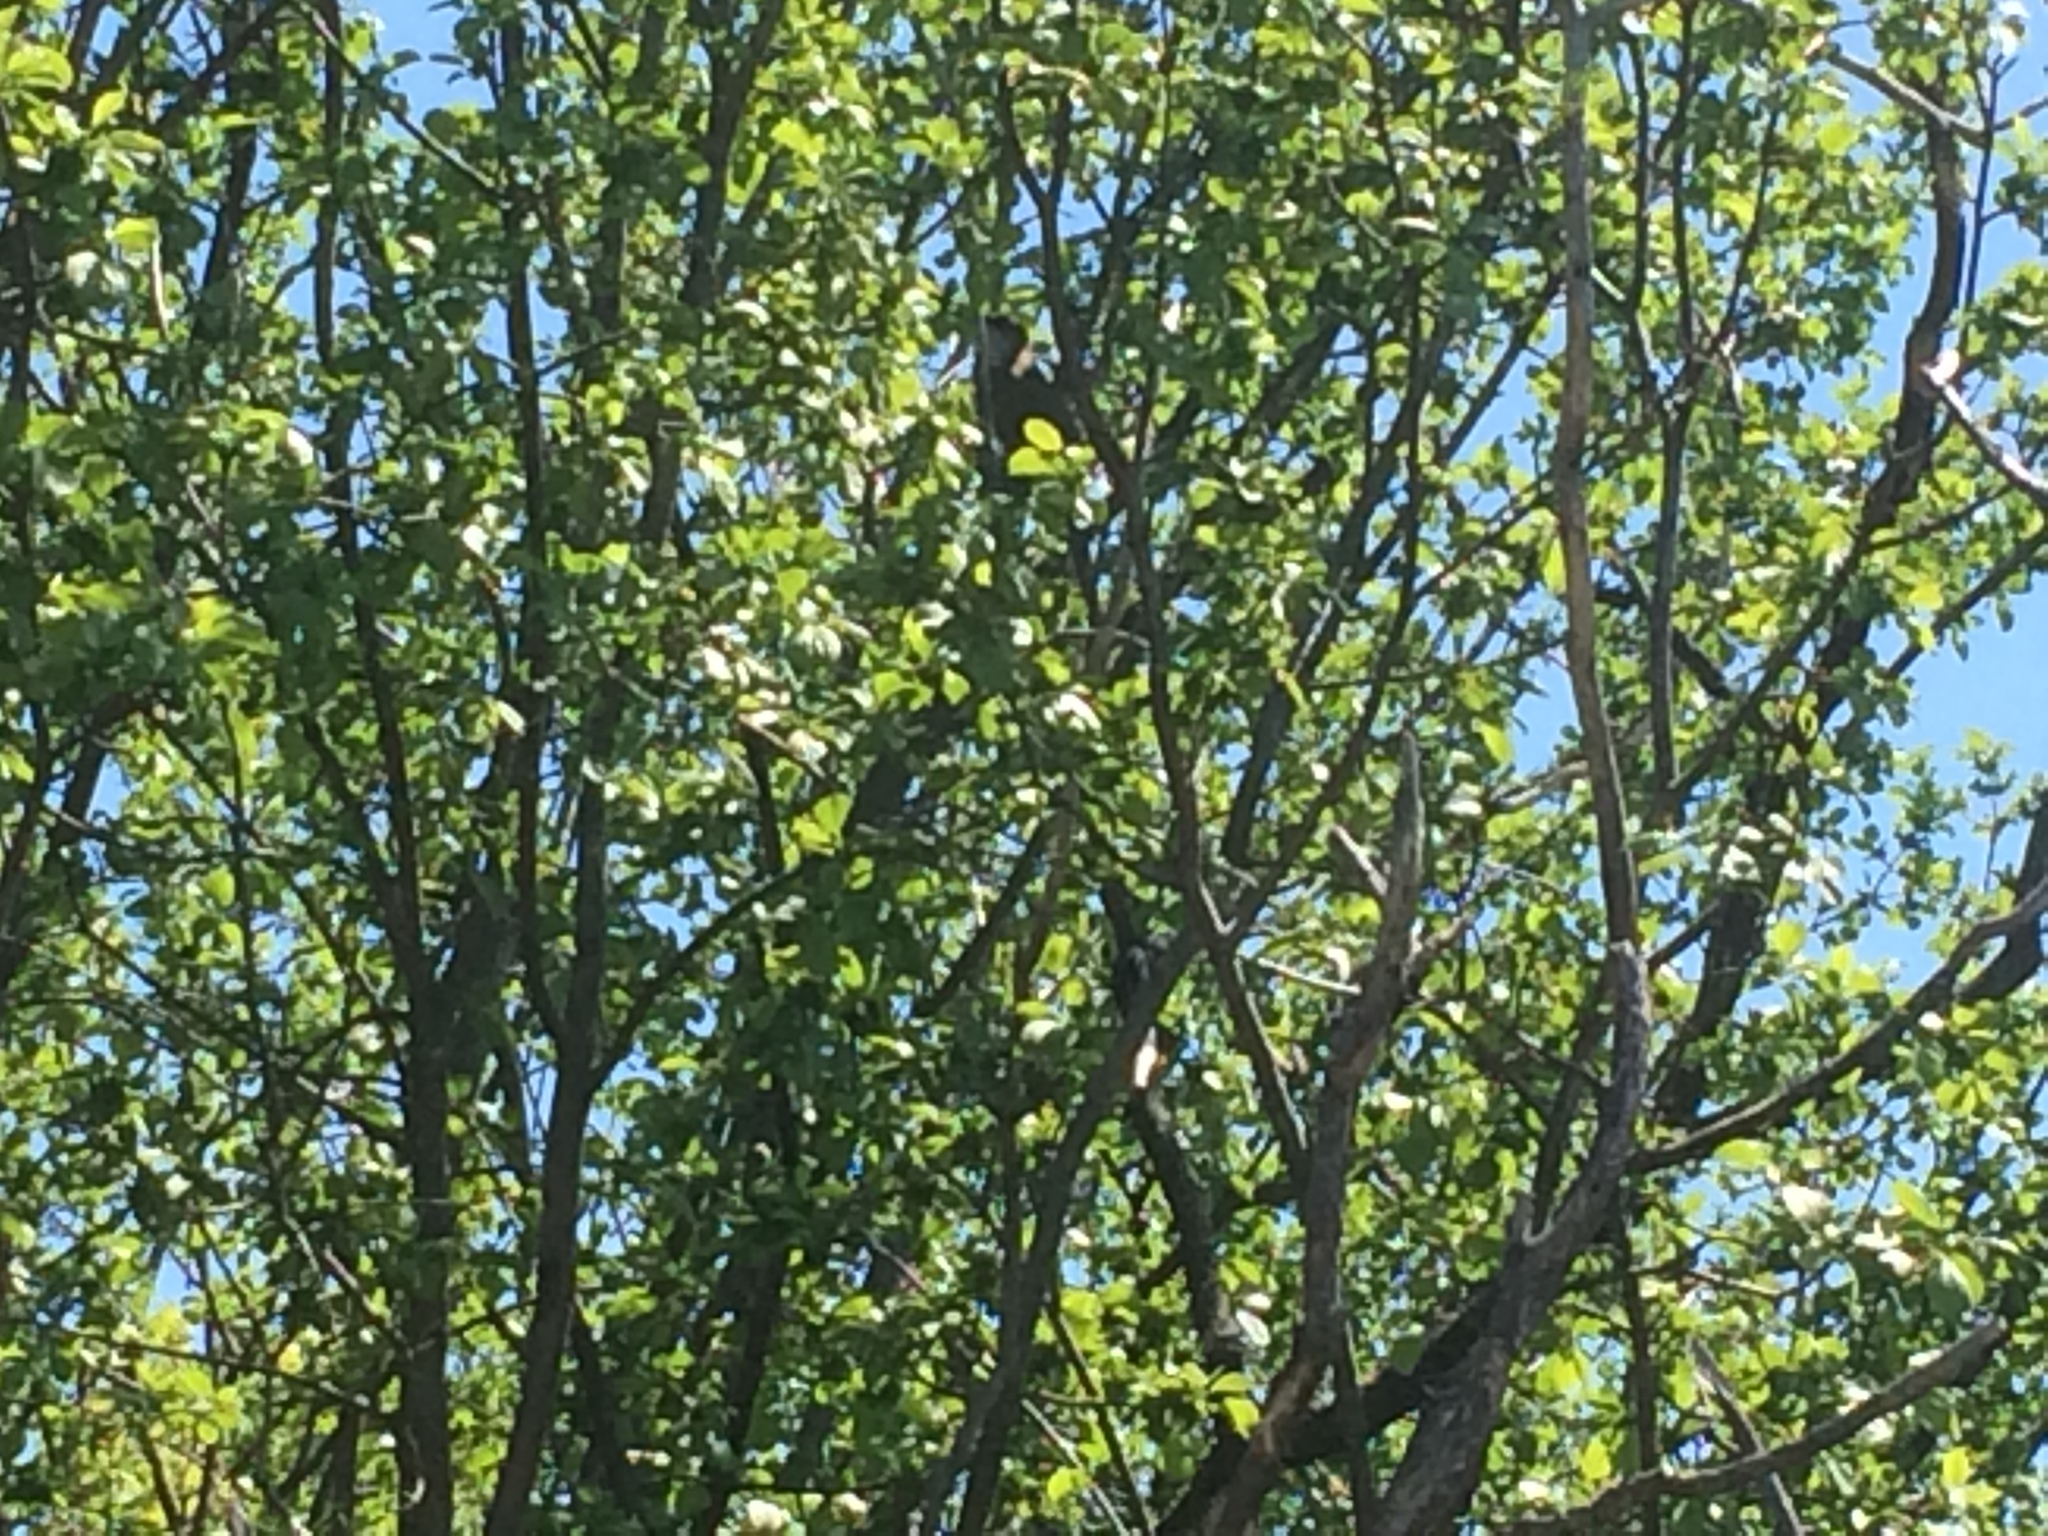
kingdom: Animalia
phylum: Chordata
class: Aves
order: Cuculiformes
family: Cuculidae
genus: Coccyzus
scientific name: Coccyzus erythropthalmus
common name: Black-billed cuckoo
